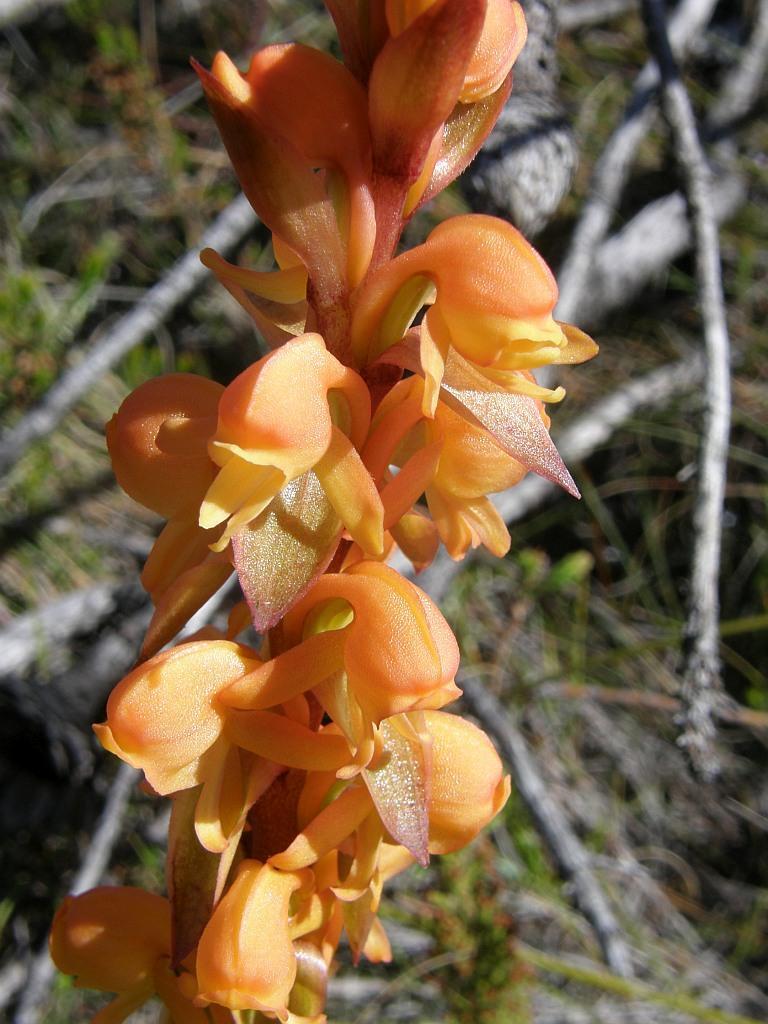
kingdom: Plantae
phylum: Tracheophyta
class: Liliopsida
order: Asparagales
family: Orchidaceae
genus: Satyrium
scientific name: Satyrium coriifolium
